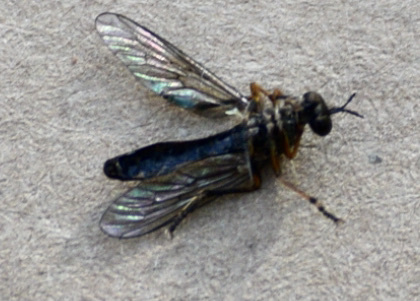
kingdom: Animalia
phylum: Arthropoda
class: Insecta
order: Diptera
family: Asilidae
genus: Dioctria
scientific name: Dioctria hyalipennis
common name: Stripe-legged robberfly
